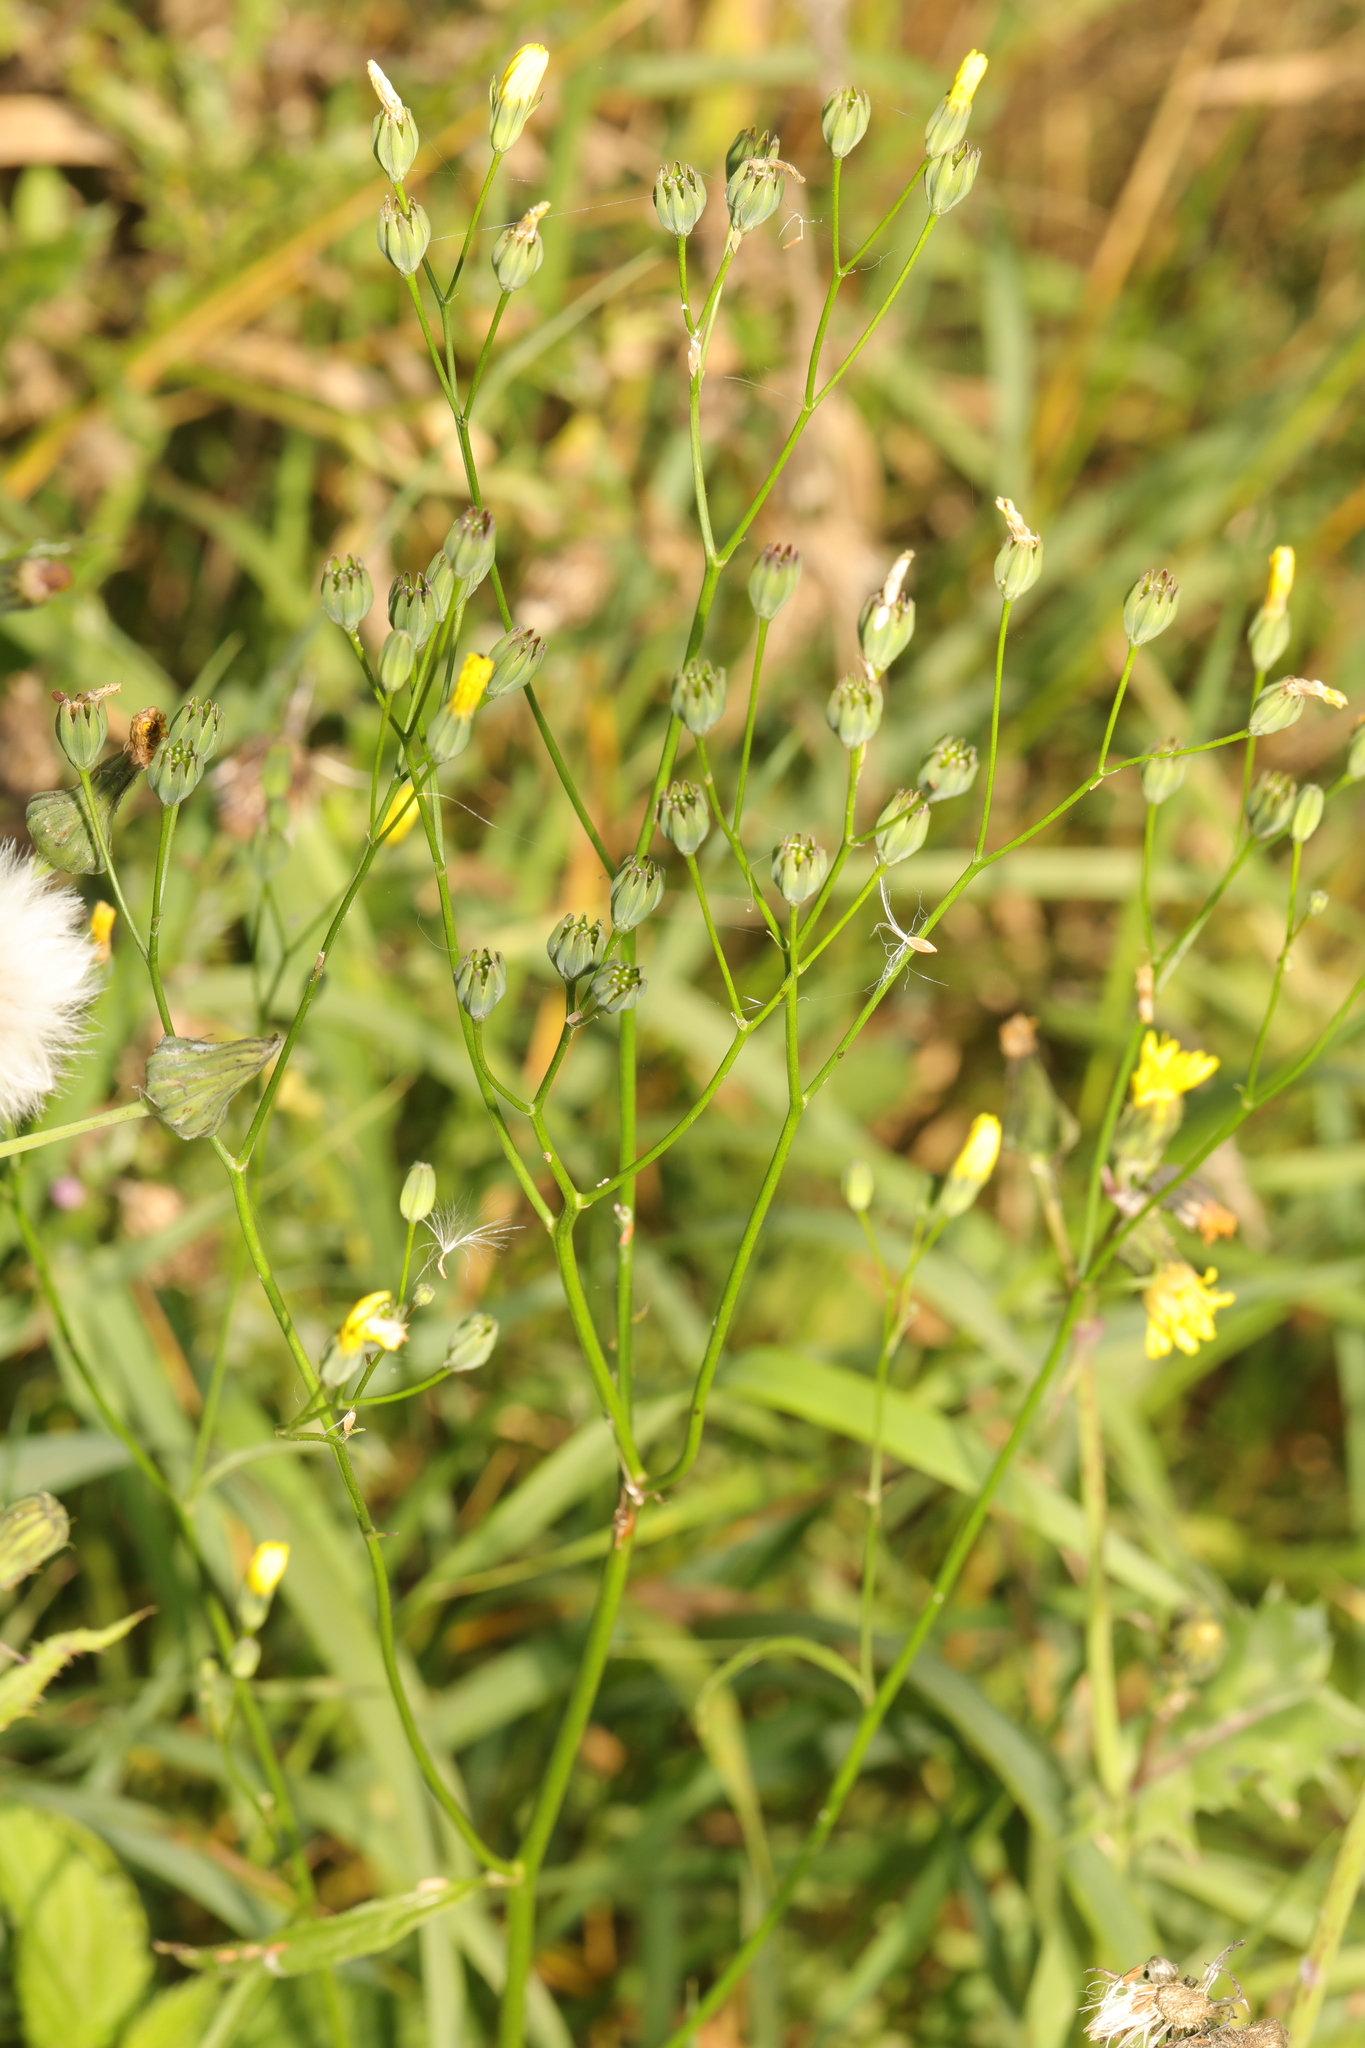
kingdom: Plantae
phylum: Tracheophyta
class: Magnoliopsida
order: Asterales
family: Asteraceae
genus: Lapsana
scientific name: Lapsana communis
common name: Nipplewort
